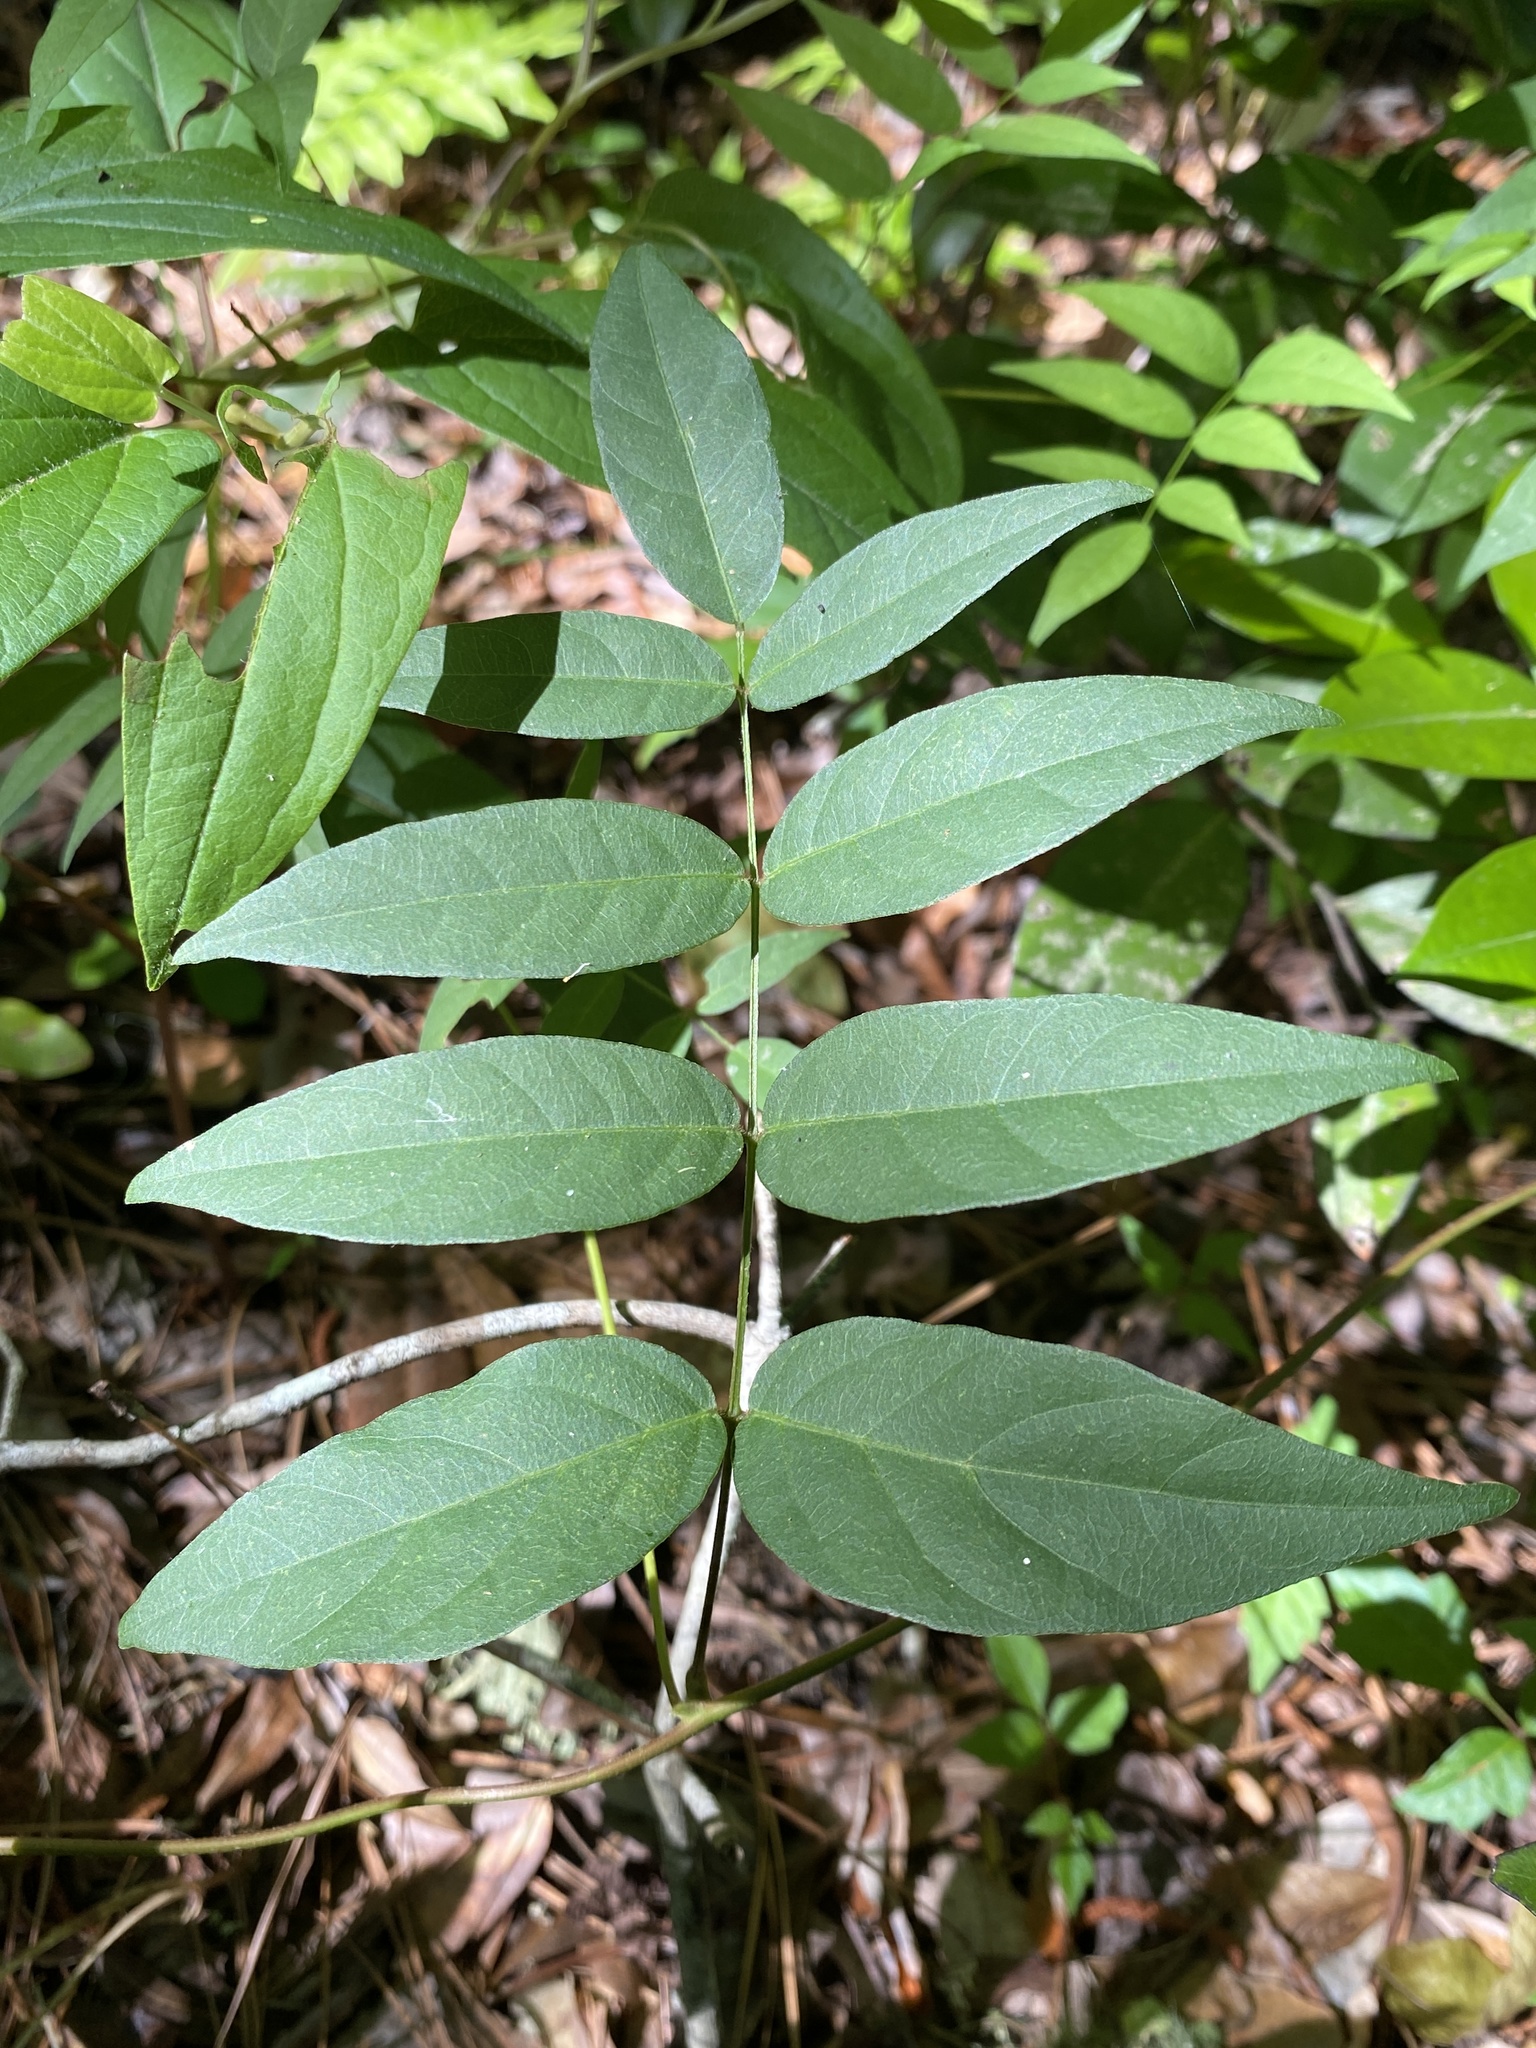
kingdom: Plantae
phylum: Tracheophyta
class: Magnoliopsida
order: Fabales
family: Fabaceae
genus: Wisteria
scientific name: Wisteria frutescens
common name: American wisteria
